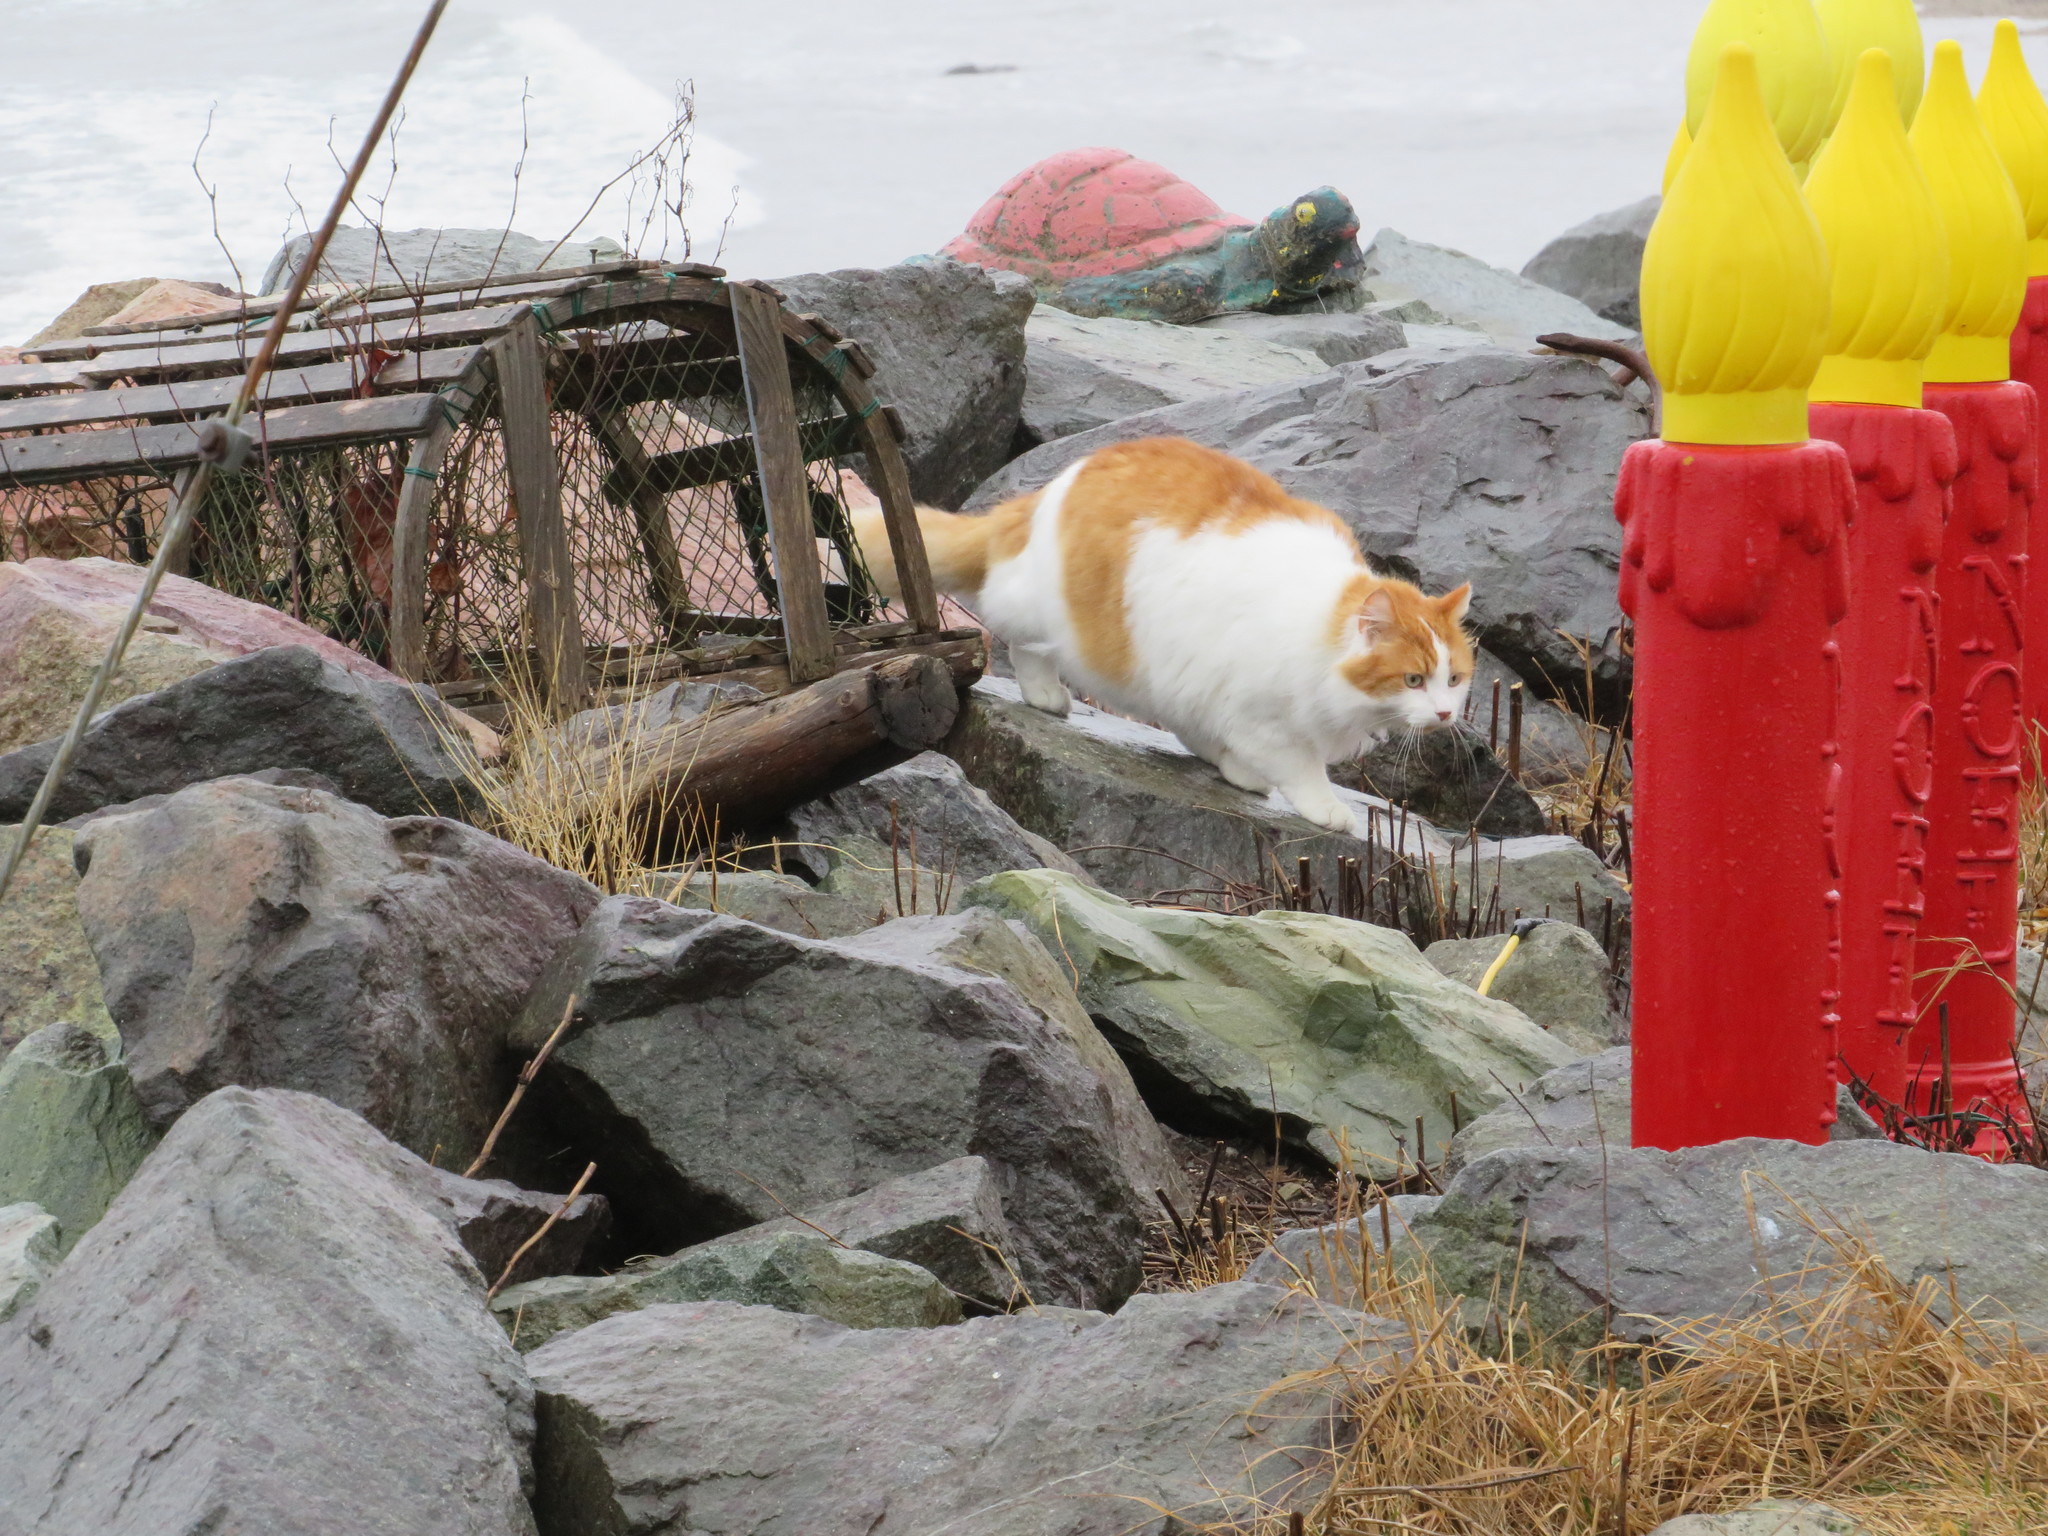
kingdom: Animalia
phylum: Chordata
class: Mammalia
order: Carnivora
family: Felidae
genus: Felis
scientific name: Felis catus
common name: Domestic cat
